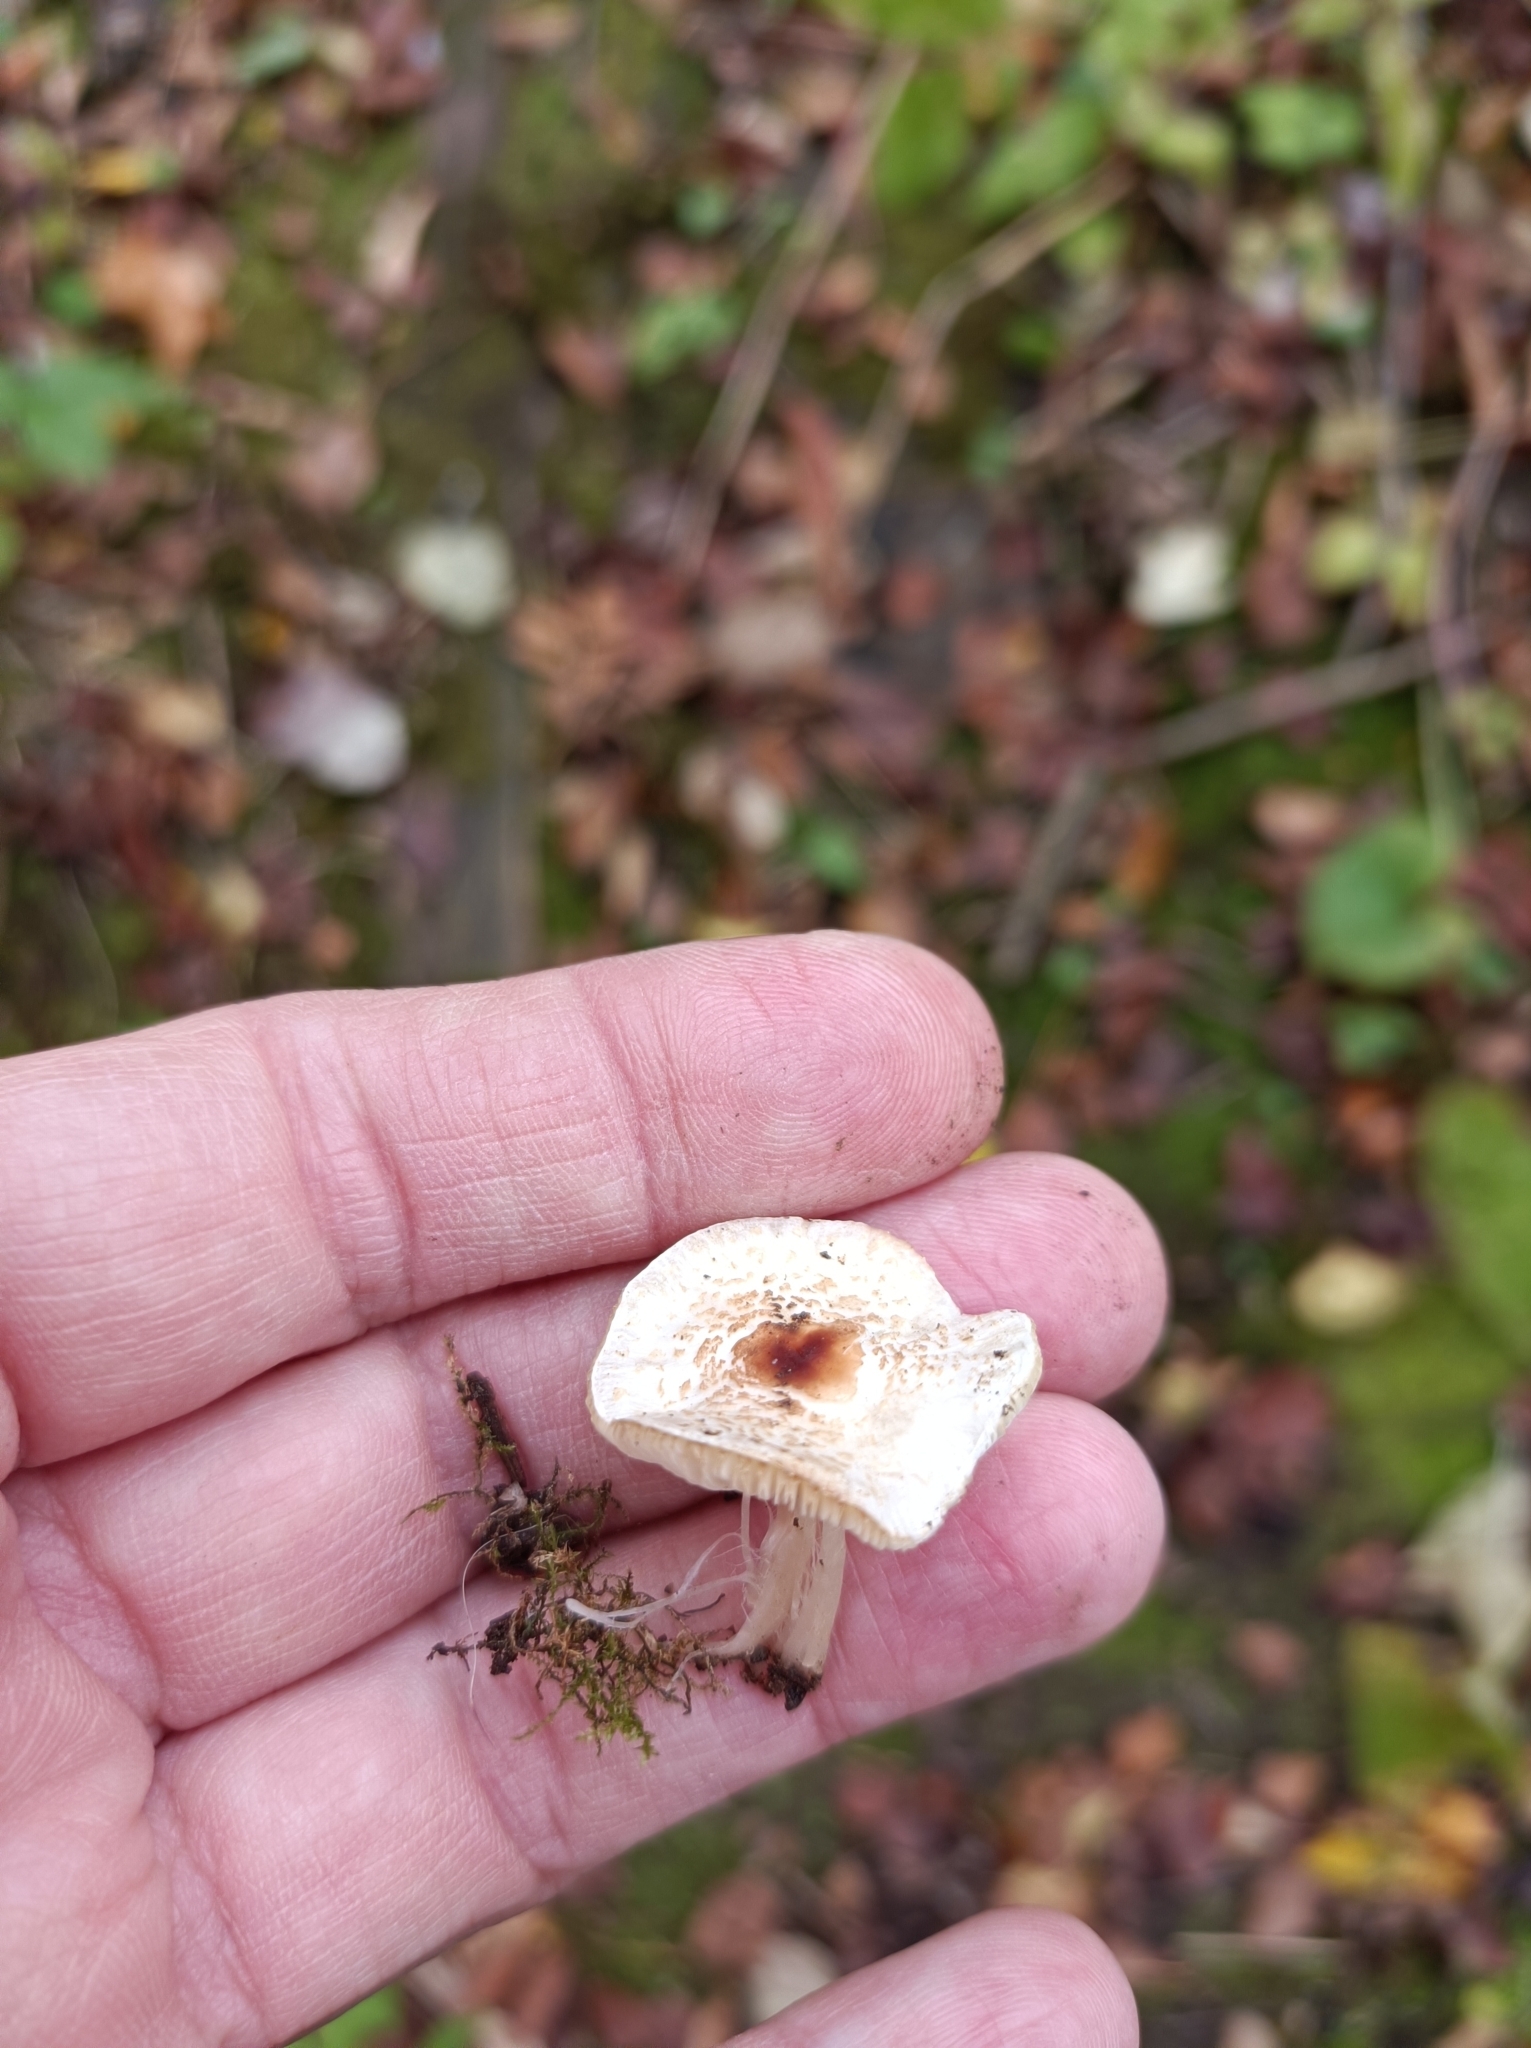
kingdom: Fungi
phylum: Basidiomycota
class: Agaricomycetes
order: Agaricales
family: Agaricaceae
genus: Lepiota
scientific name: Lepiota cristata
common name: Stinking dapperling
